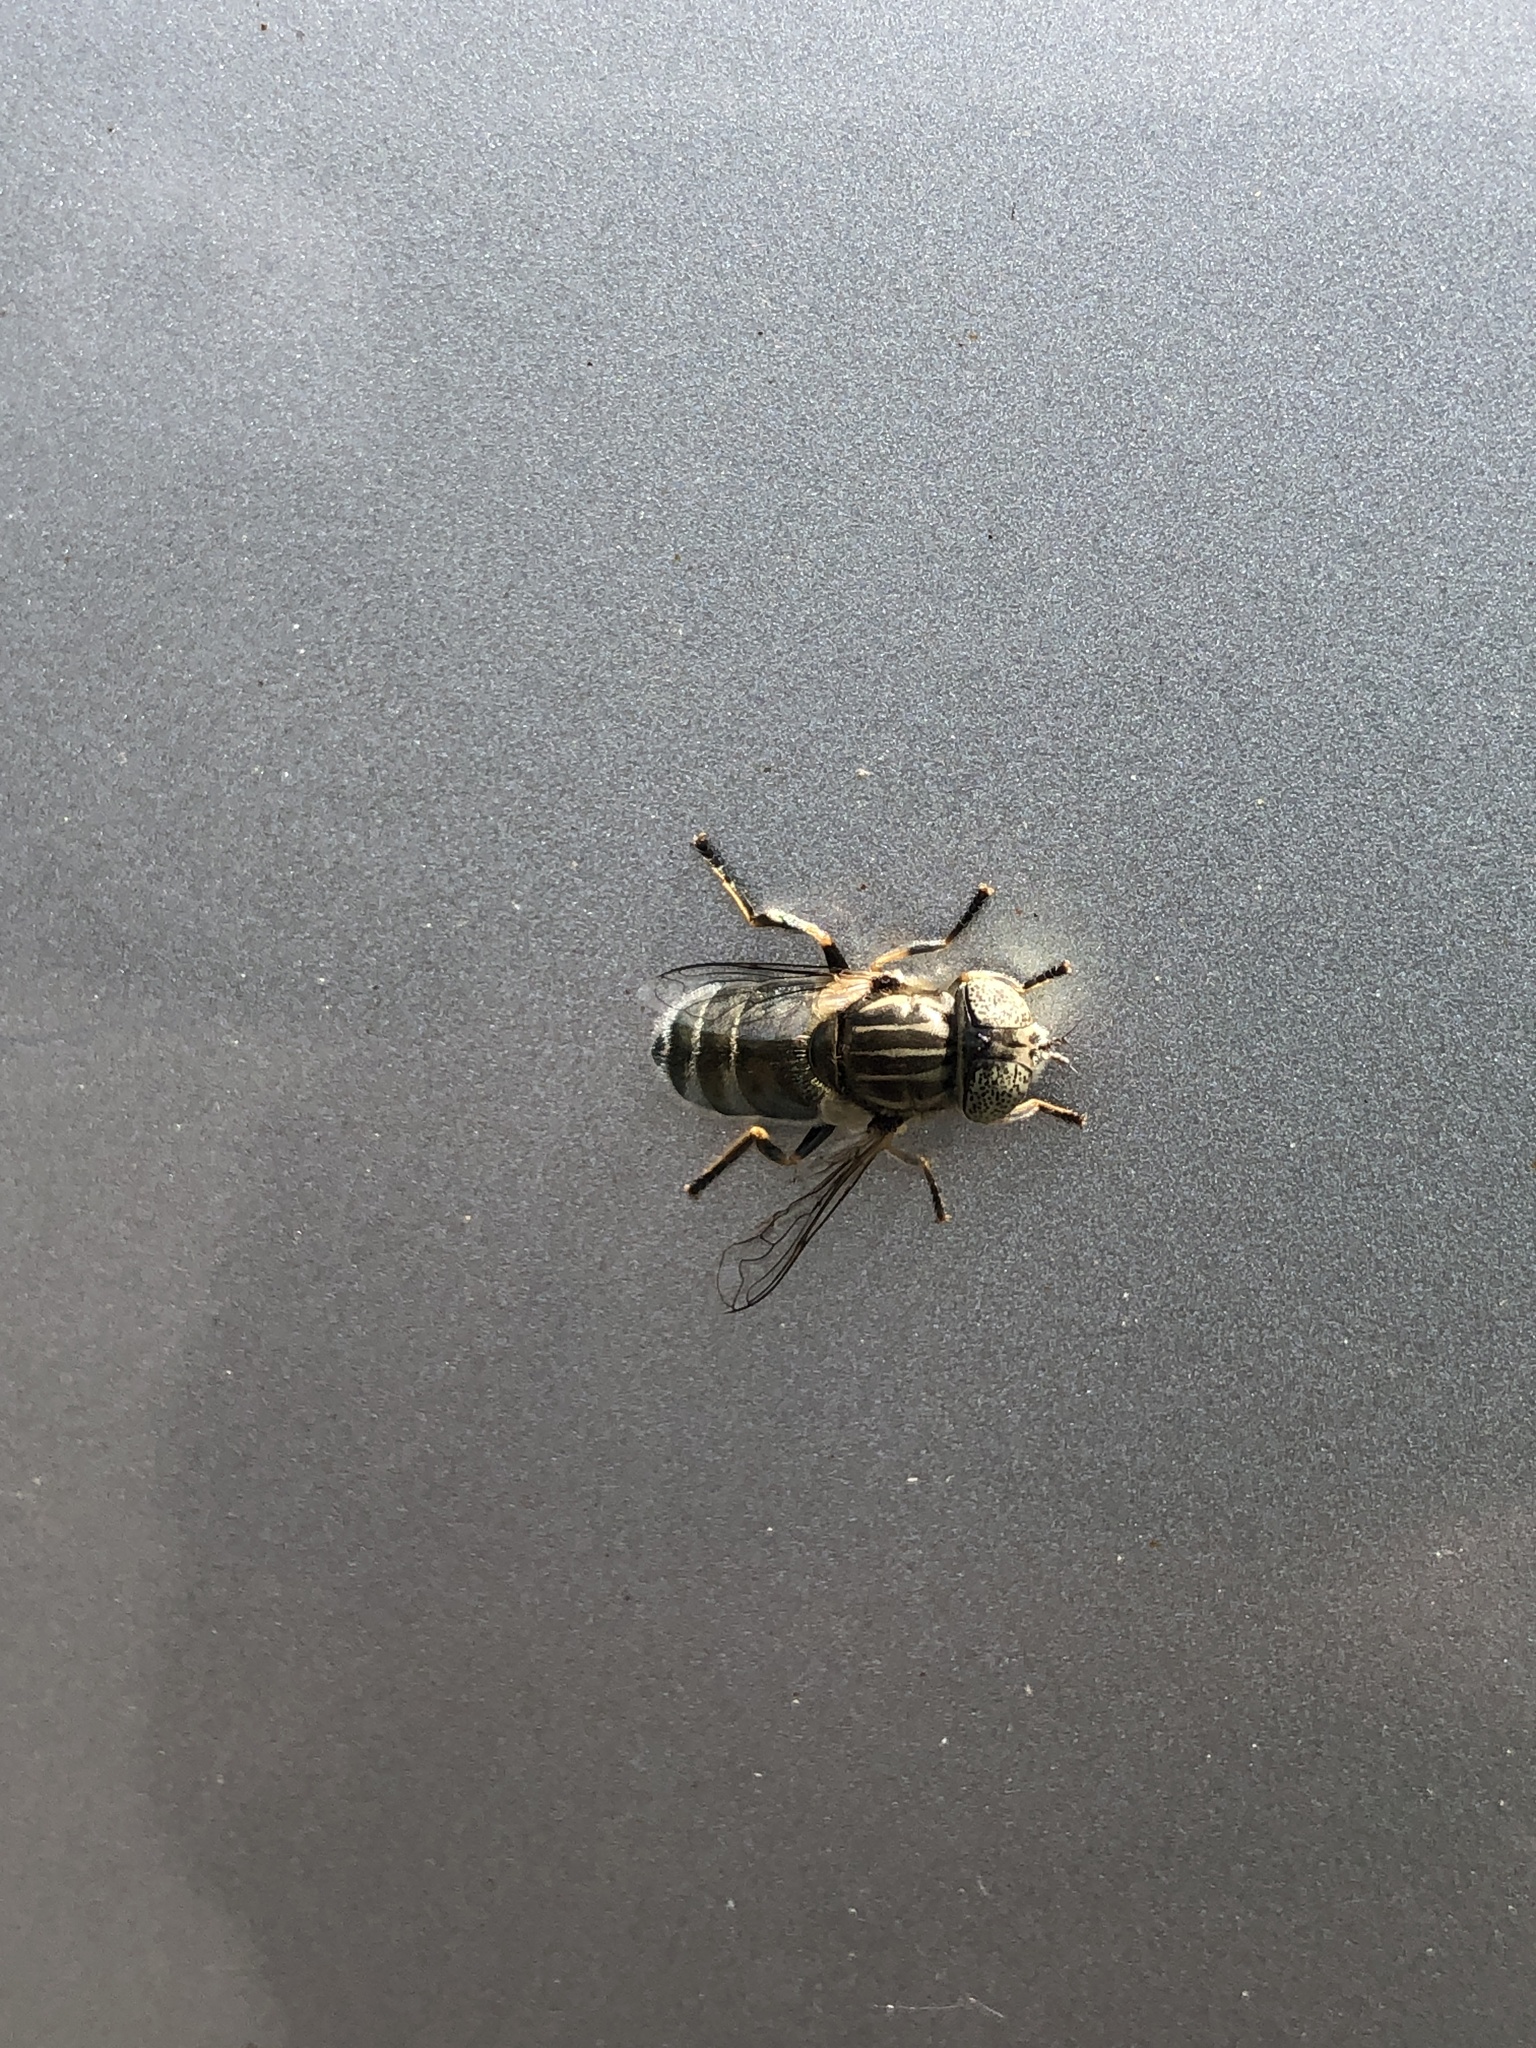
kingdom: Animalia
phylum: Arthropoda
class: Insecta
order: Diptera
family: Syrphidae
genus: Eristalinus
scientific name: Eristalinus aeneus
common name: Syrphid fly
